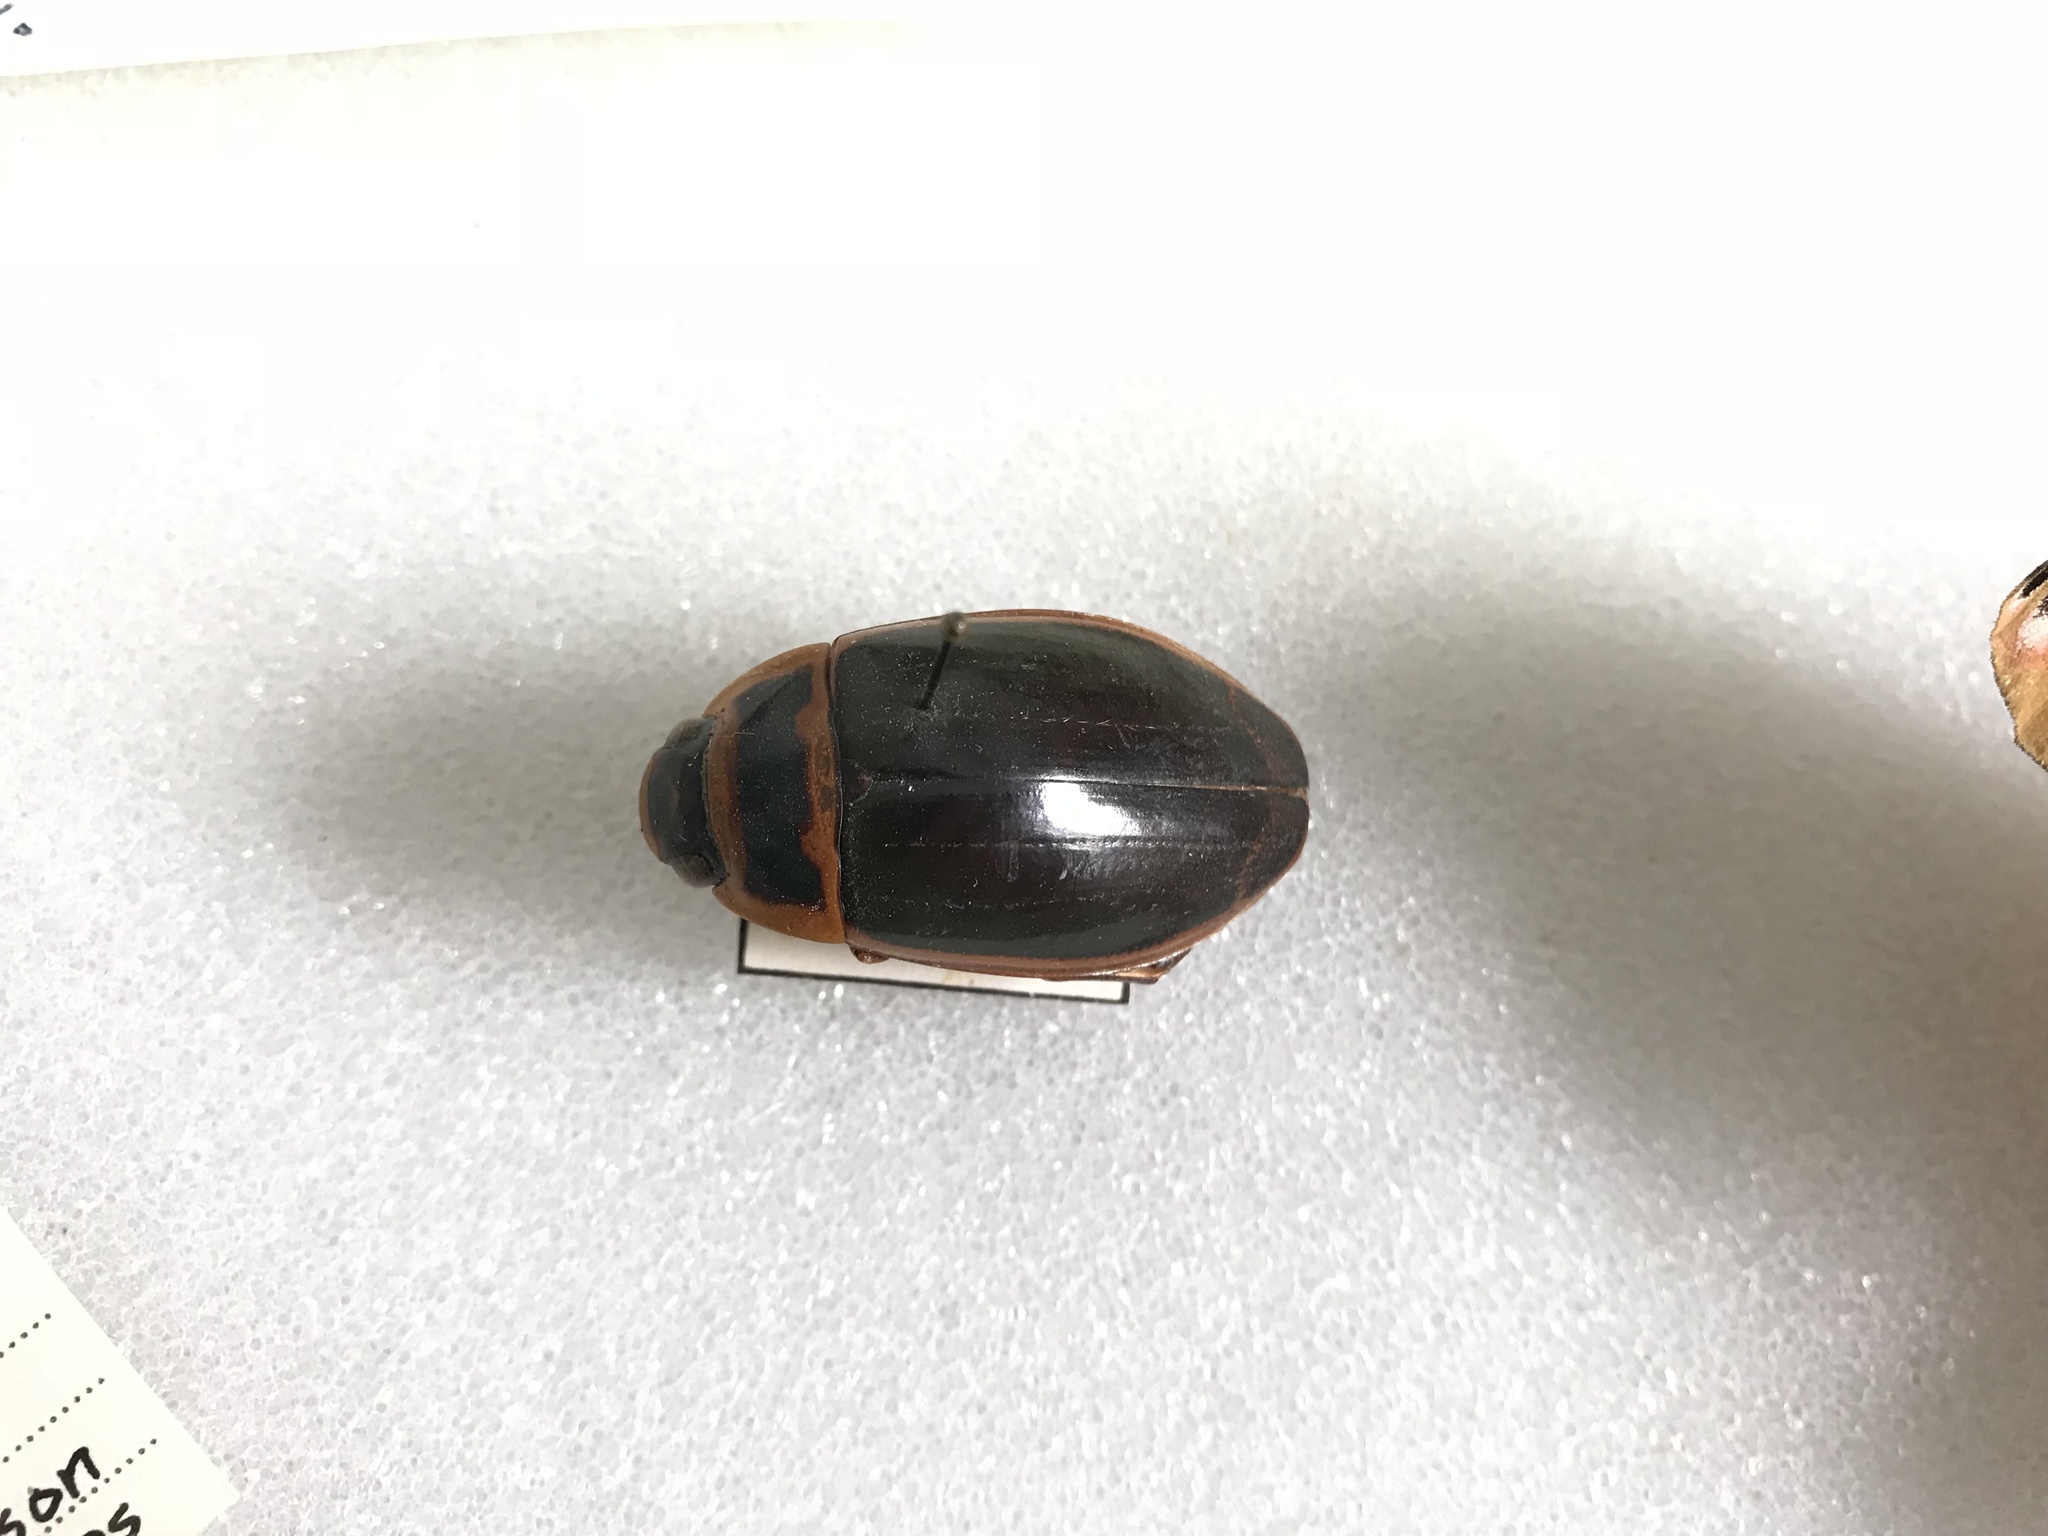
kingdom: Animalia
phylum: Arthropoda
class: Insecta
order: Coleoptera
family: Dytiscidae
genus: Dytiscus
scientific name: Dytiscus
